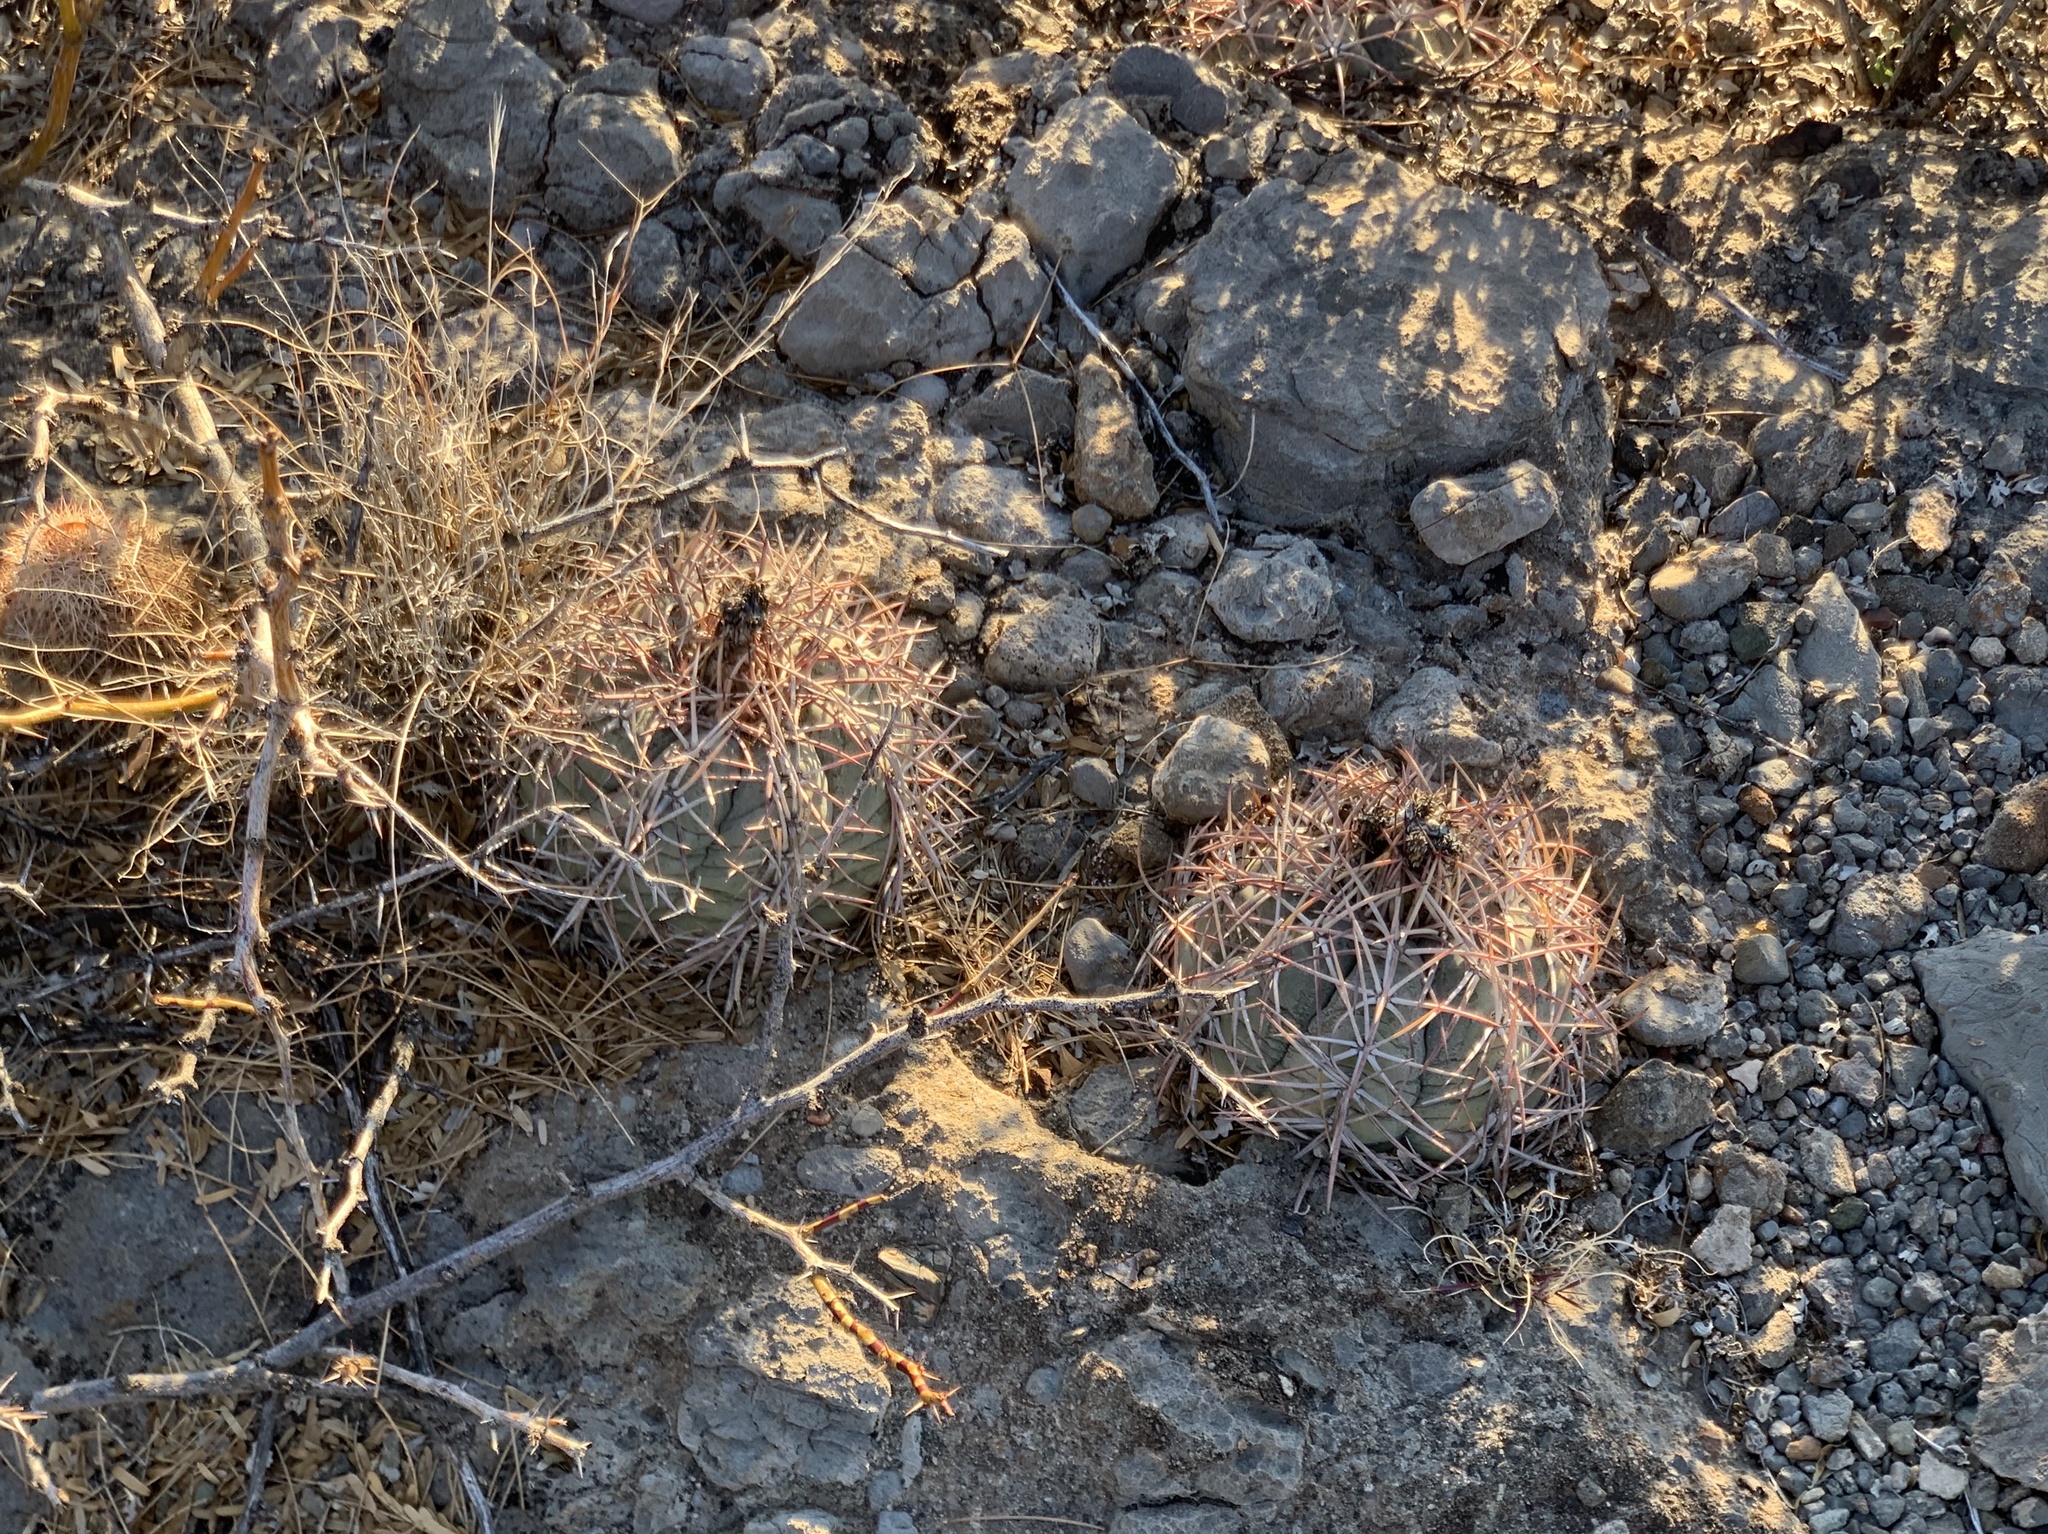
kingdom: Plantae
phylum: Tracheophyta
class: Magnoliopsida
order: Caryophyllales
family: Cactaceae
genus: Echinocactus
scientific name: Echinocactus horizonthalonius
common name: Devilshead
